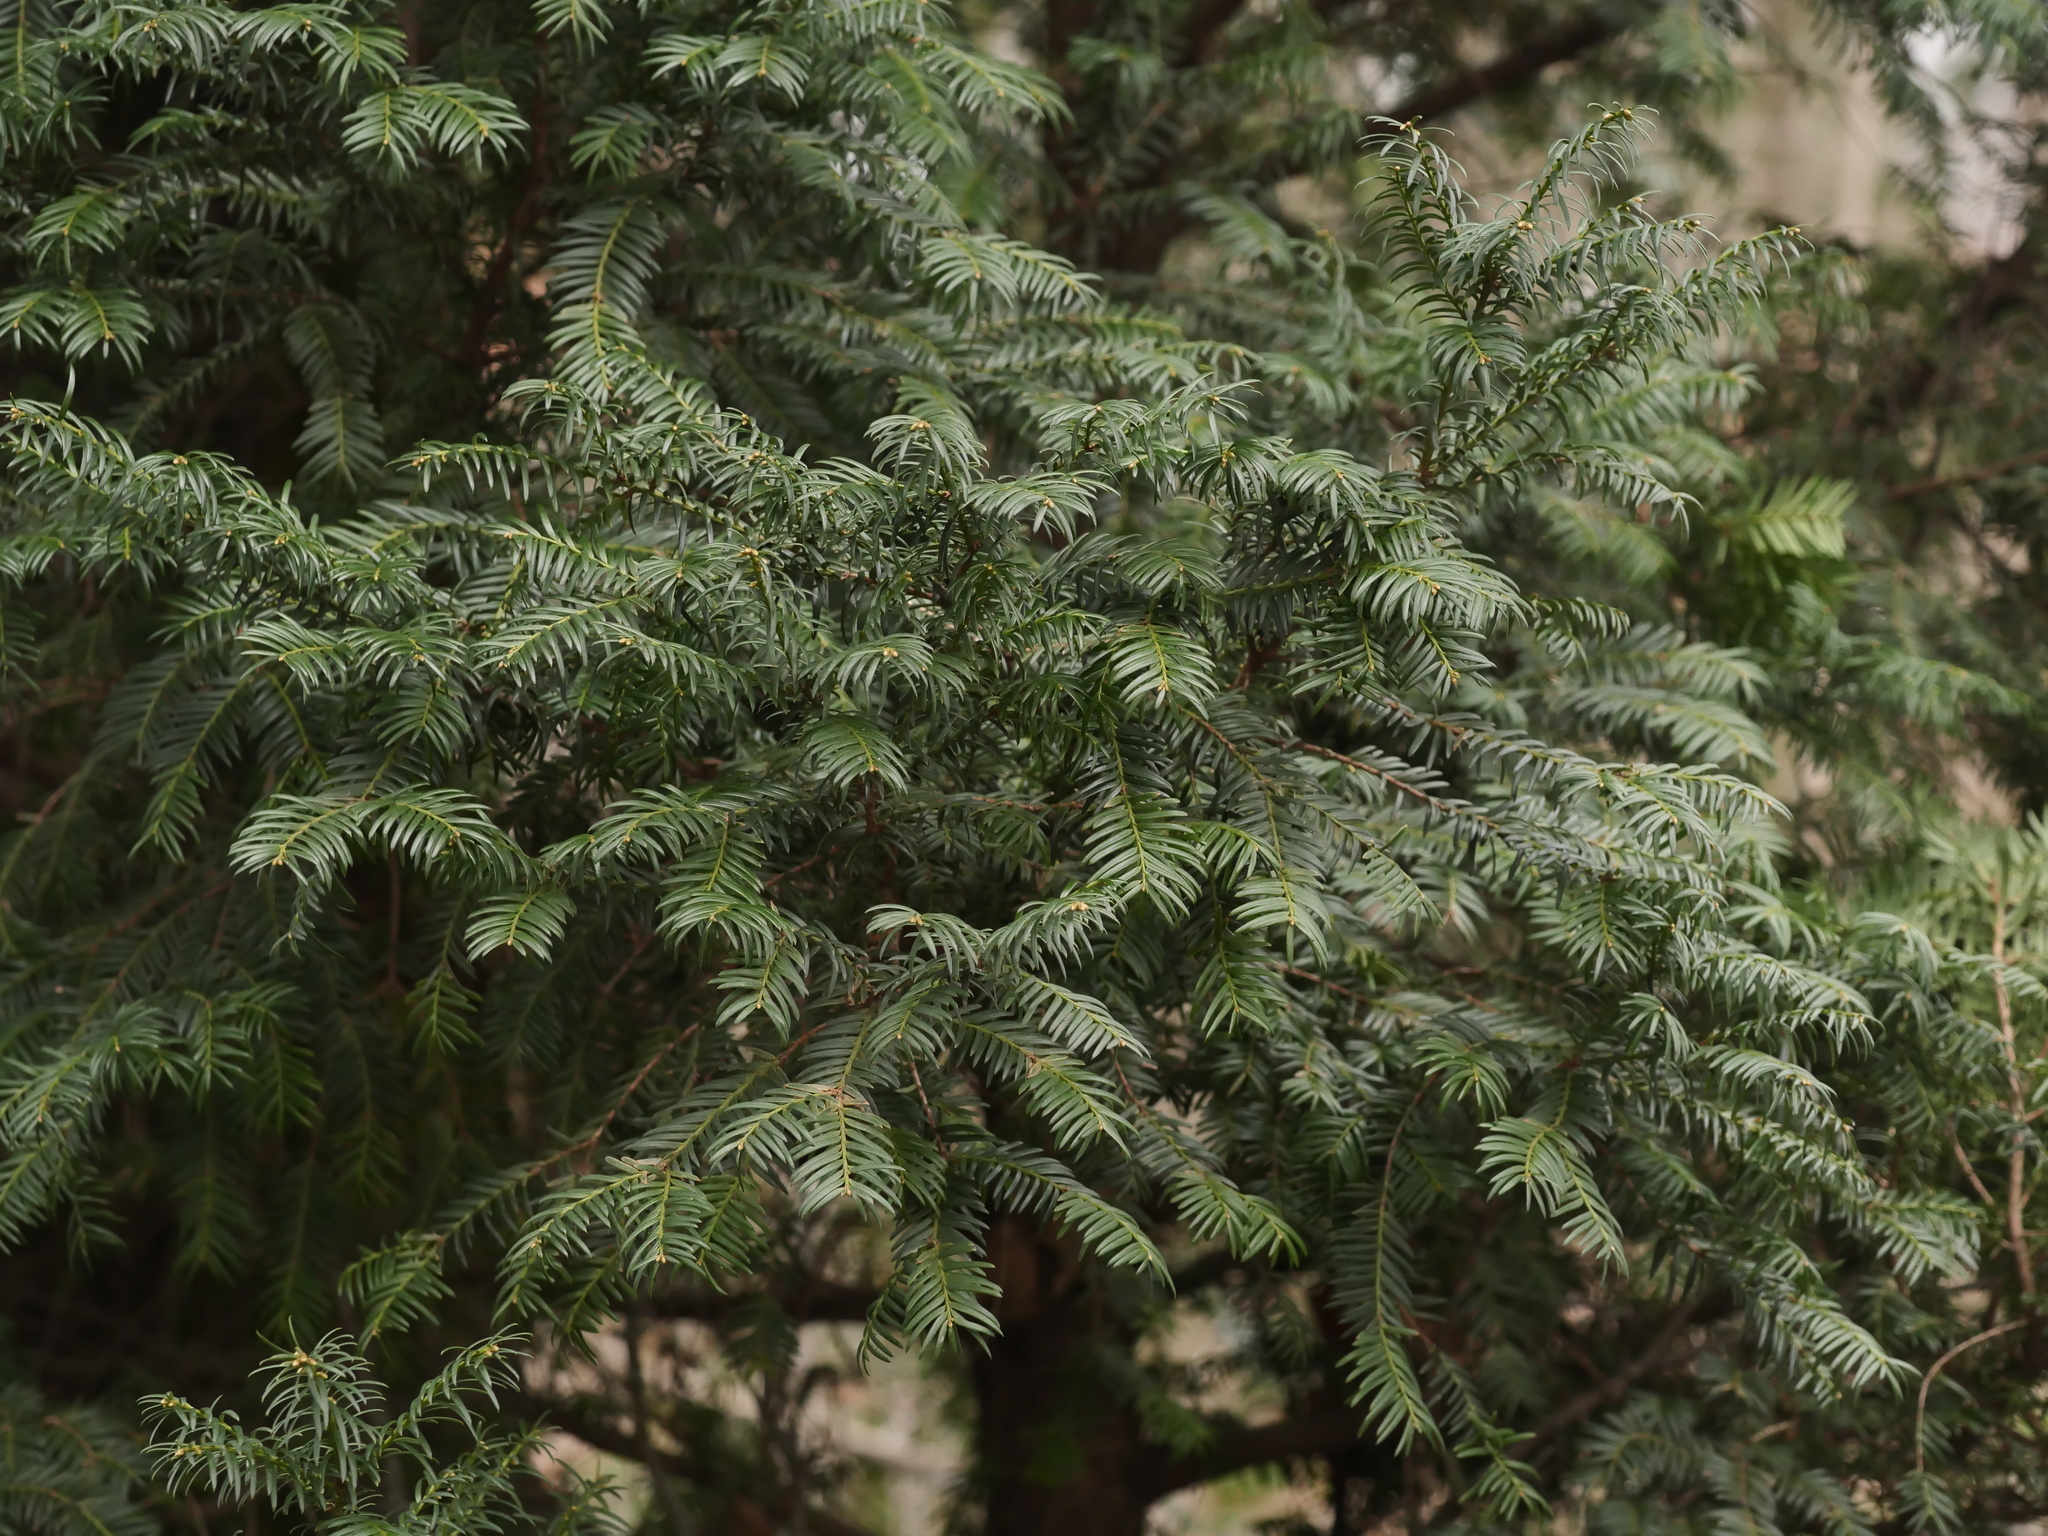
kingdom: Plantae
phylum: Tracheophyta
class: Pinopsida
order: Pinales
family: Taxaceae
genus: Taxus
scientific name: Taxus baccata
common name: Yew
